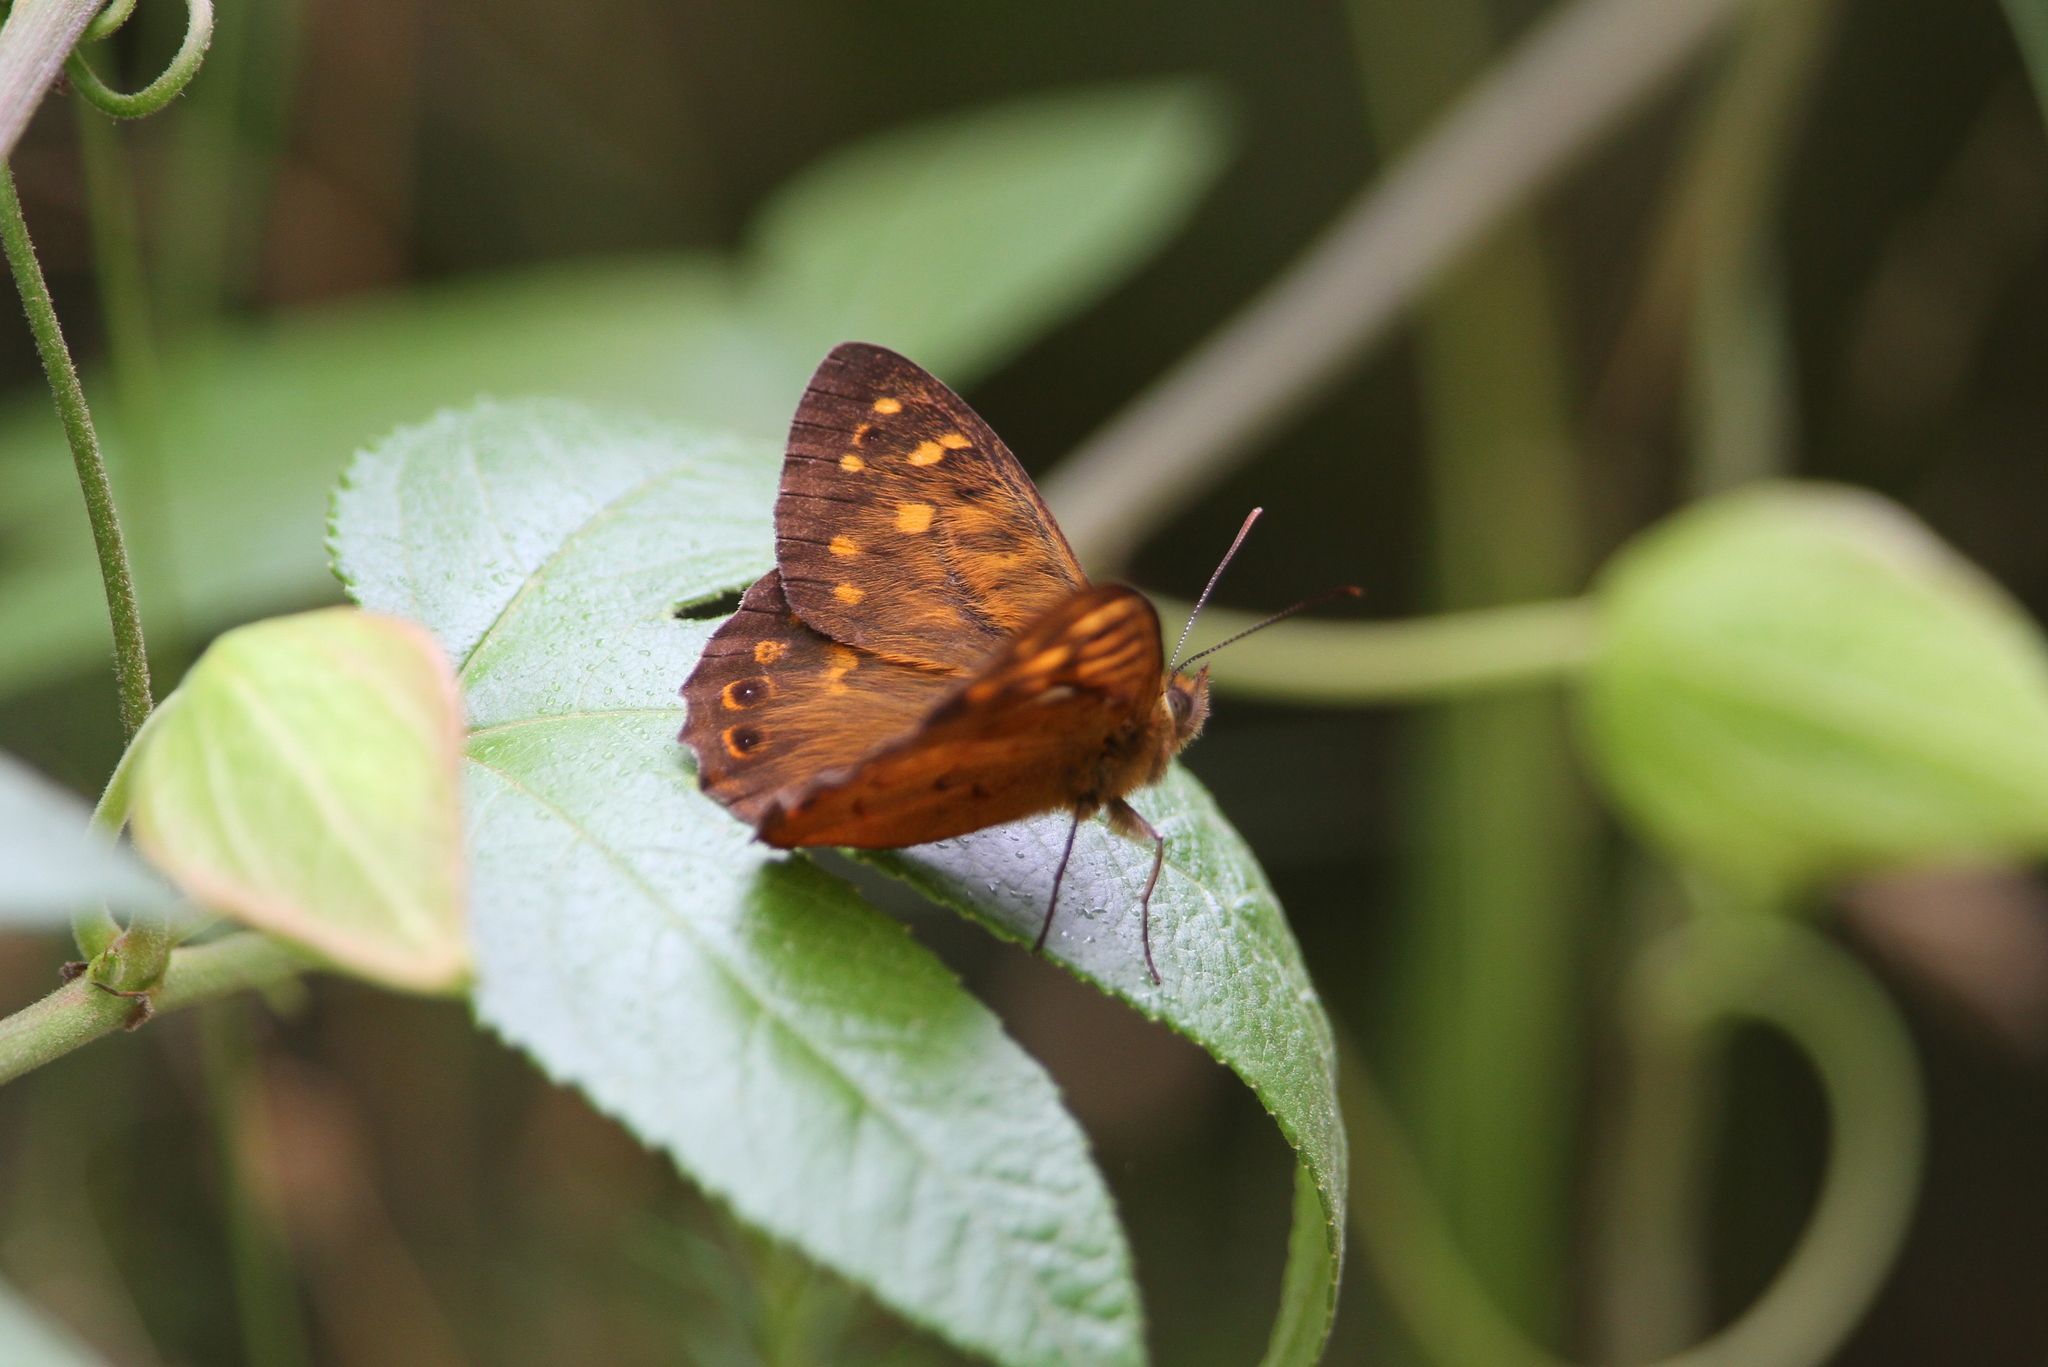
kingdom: Animalia
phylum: Arthropoda
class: Insecta
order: Lepidoptera
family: Nymphalidae
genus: Pararge
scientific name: Pararge
